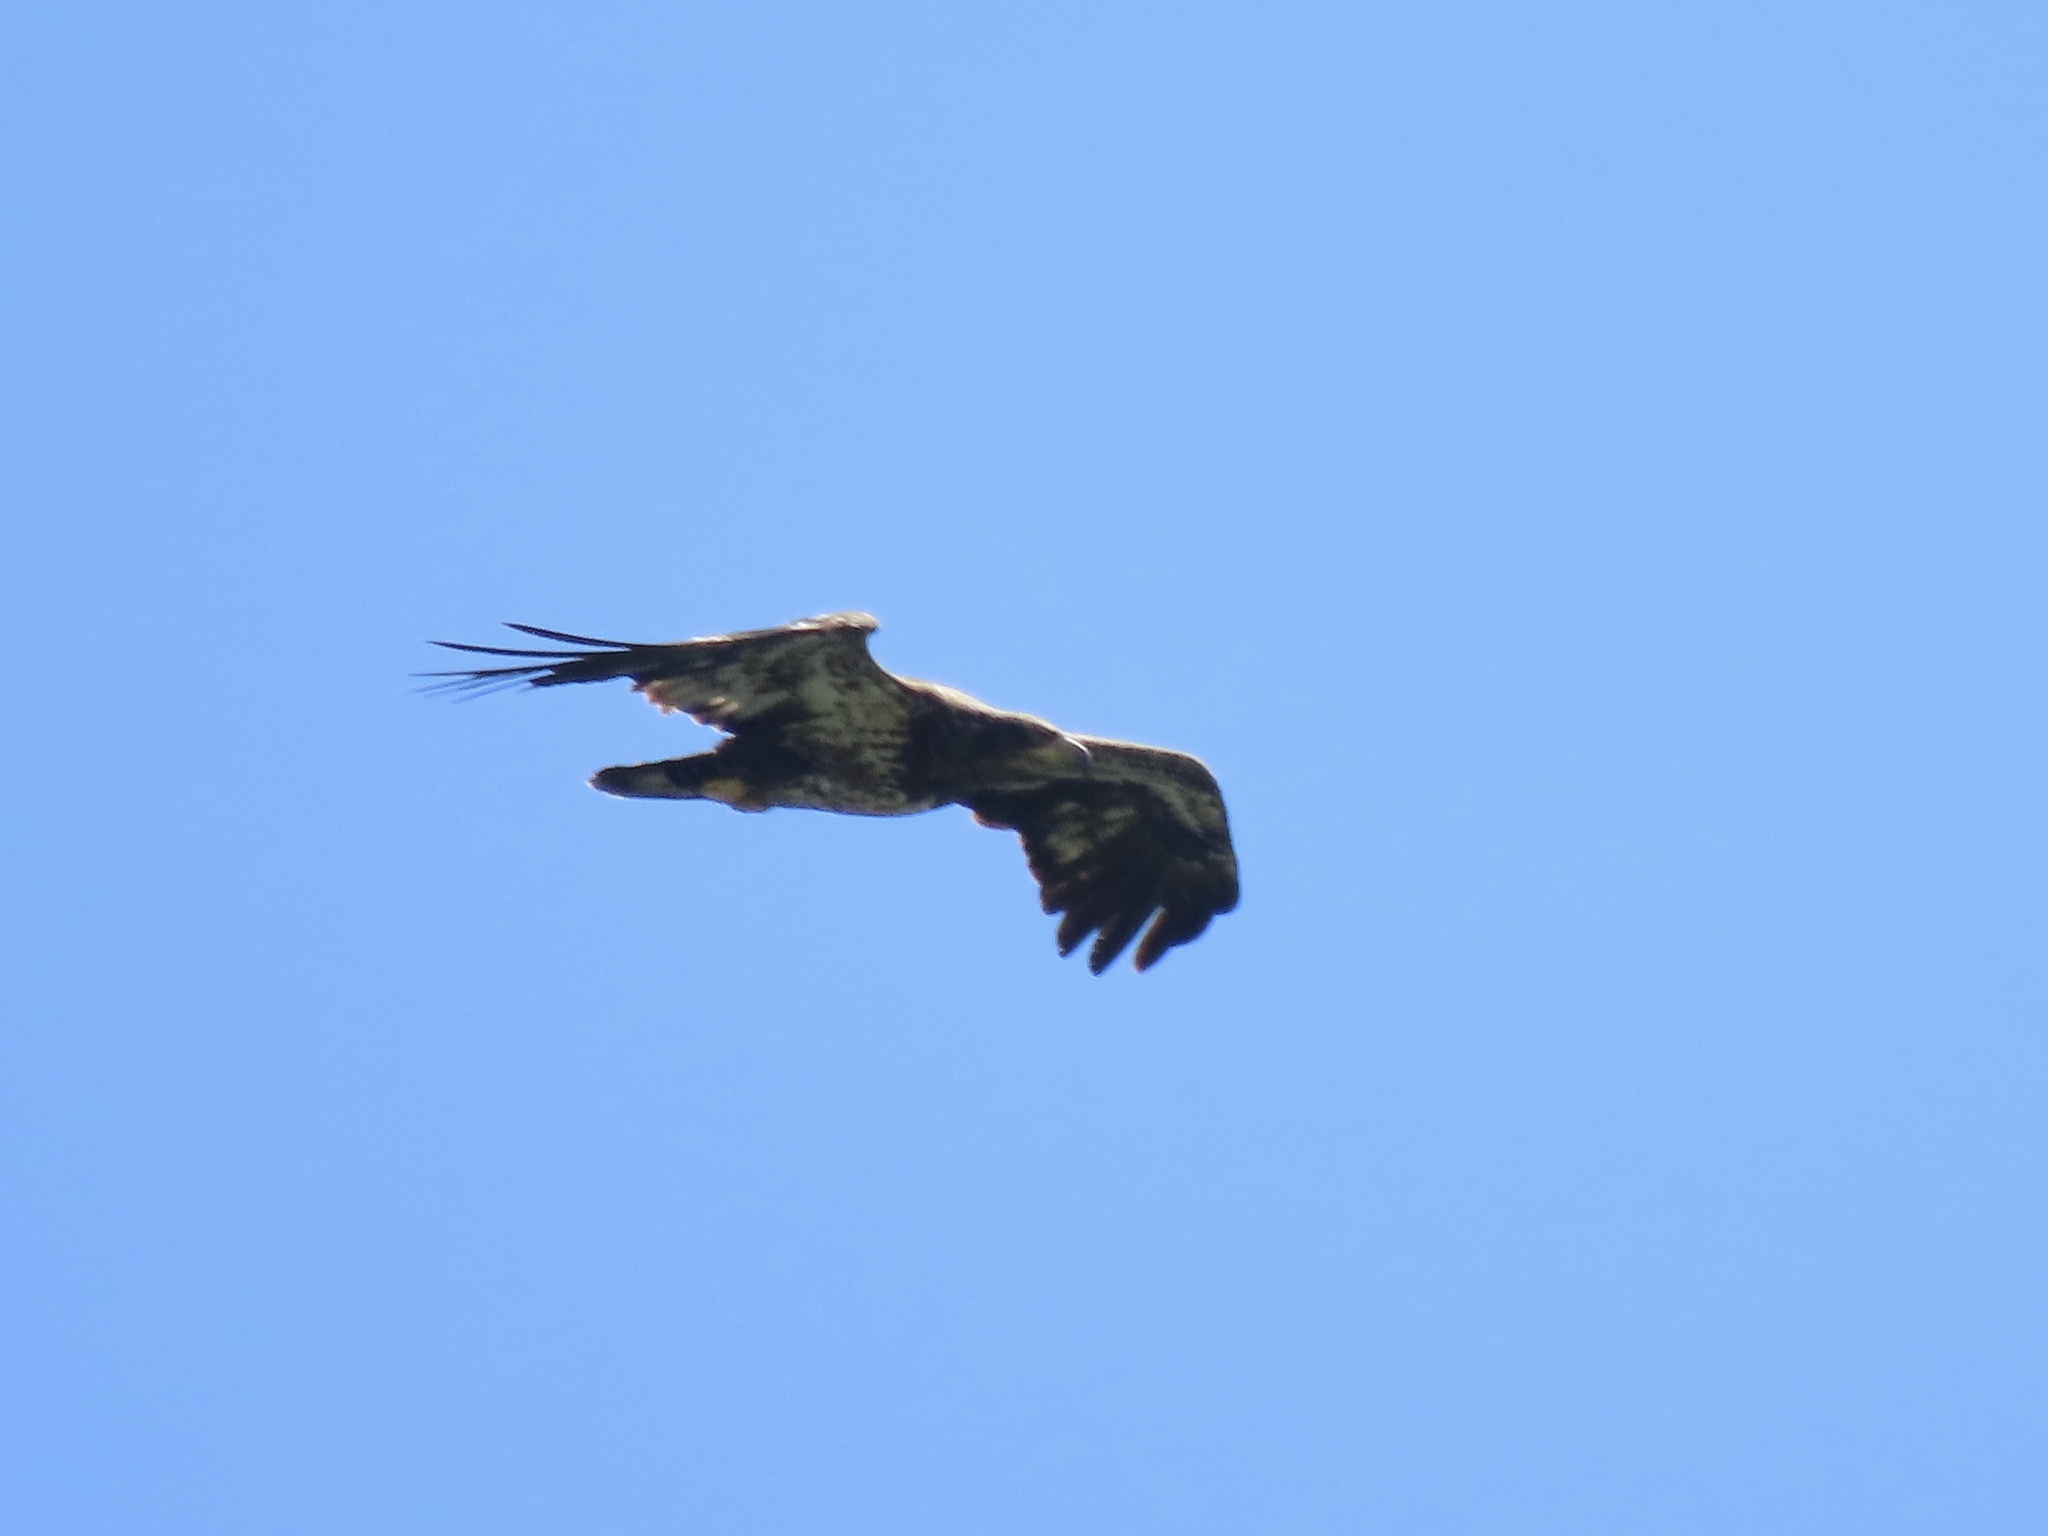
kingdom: Animalia
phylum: Chordata
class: Aves
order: Accipitriformes
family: Accipitridae
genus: Haliaeetus
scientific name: Haliaeetus leucocephalus
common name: Bald eagle
